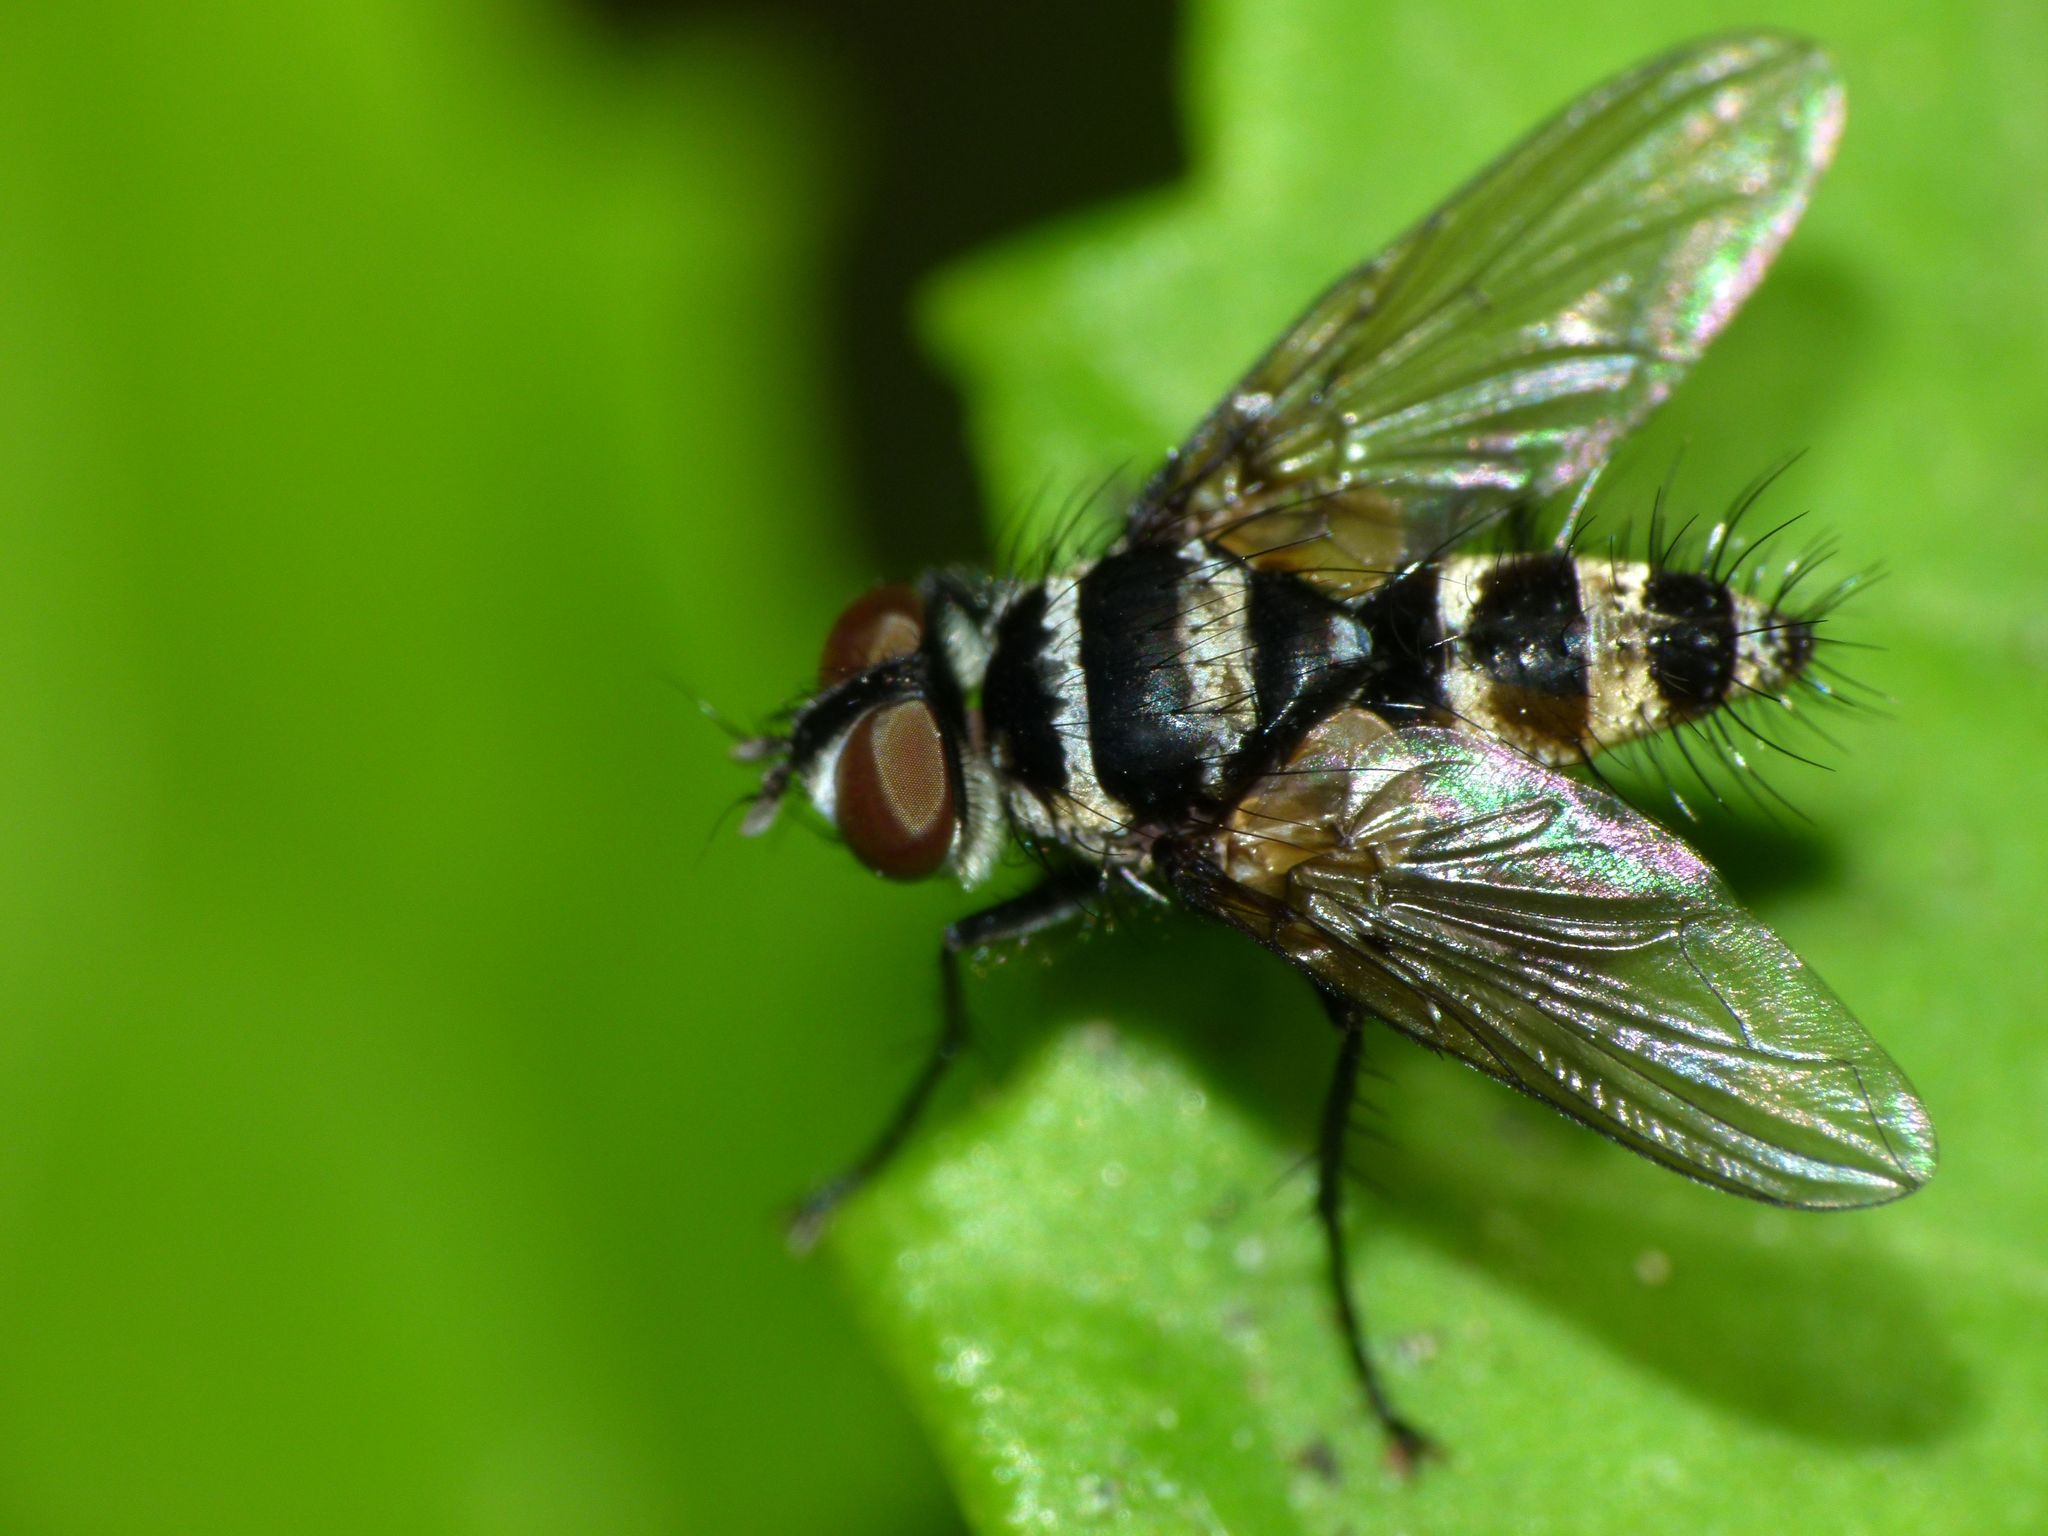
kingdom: Animalia
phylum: Arthropoda
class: Insecta
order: Diptera
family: Tachinidae
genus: Trigonospila
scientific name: Trigonospila brevifacies
